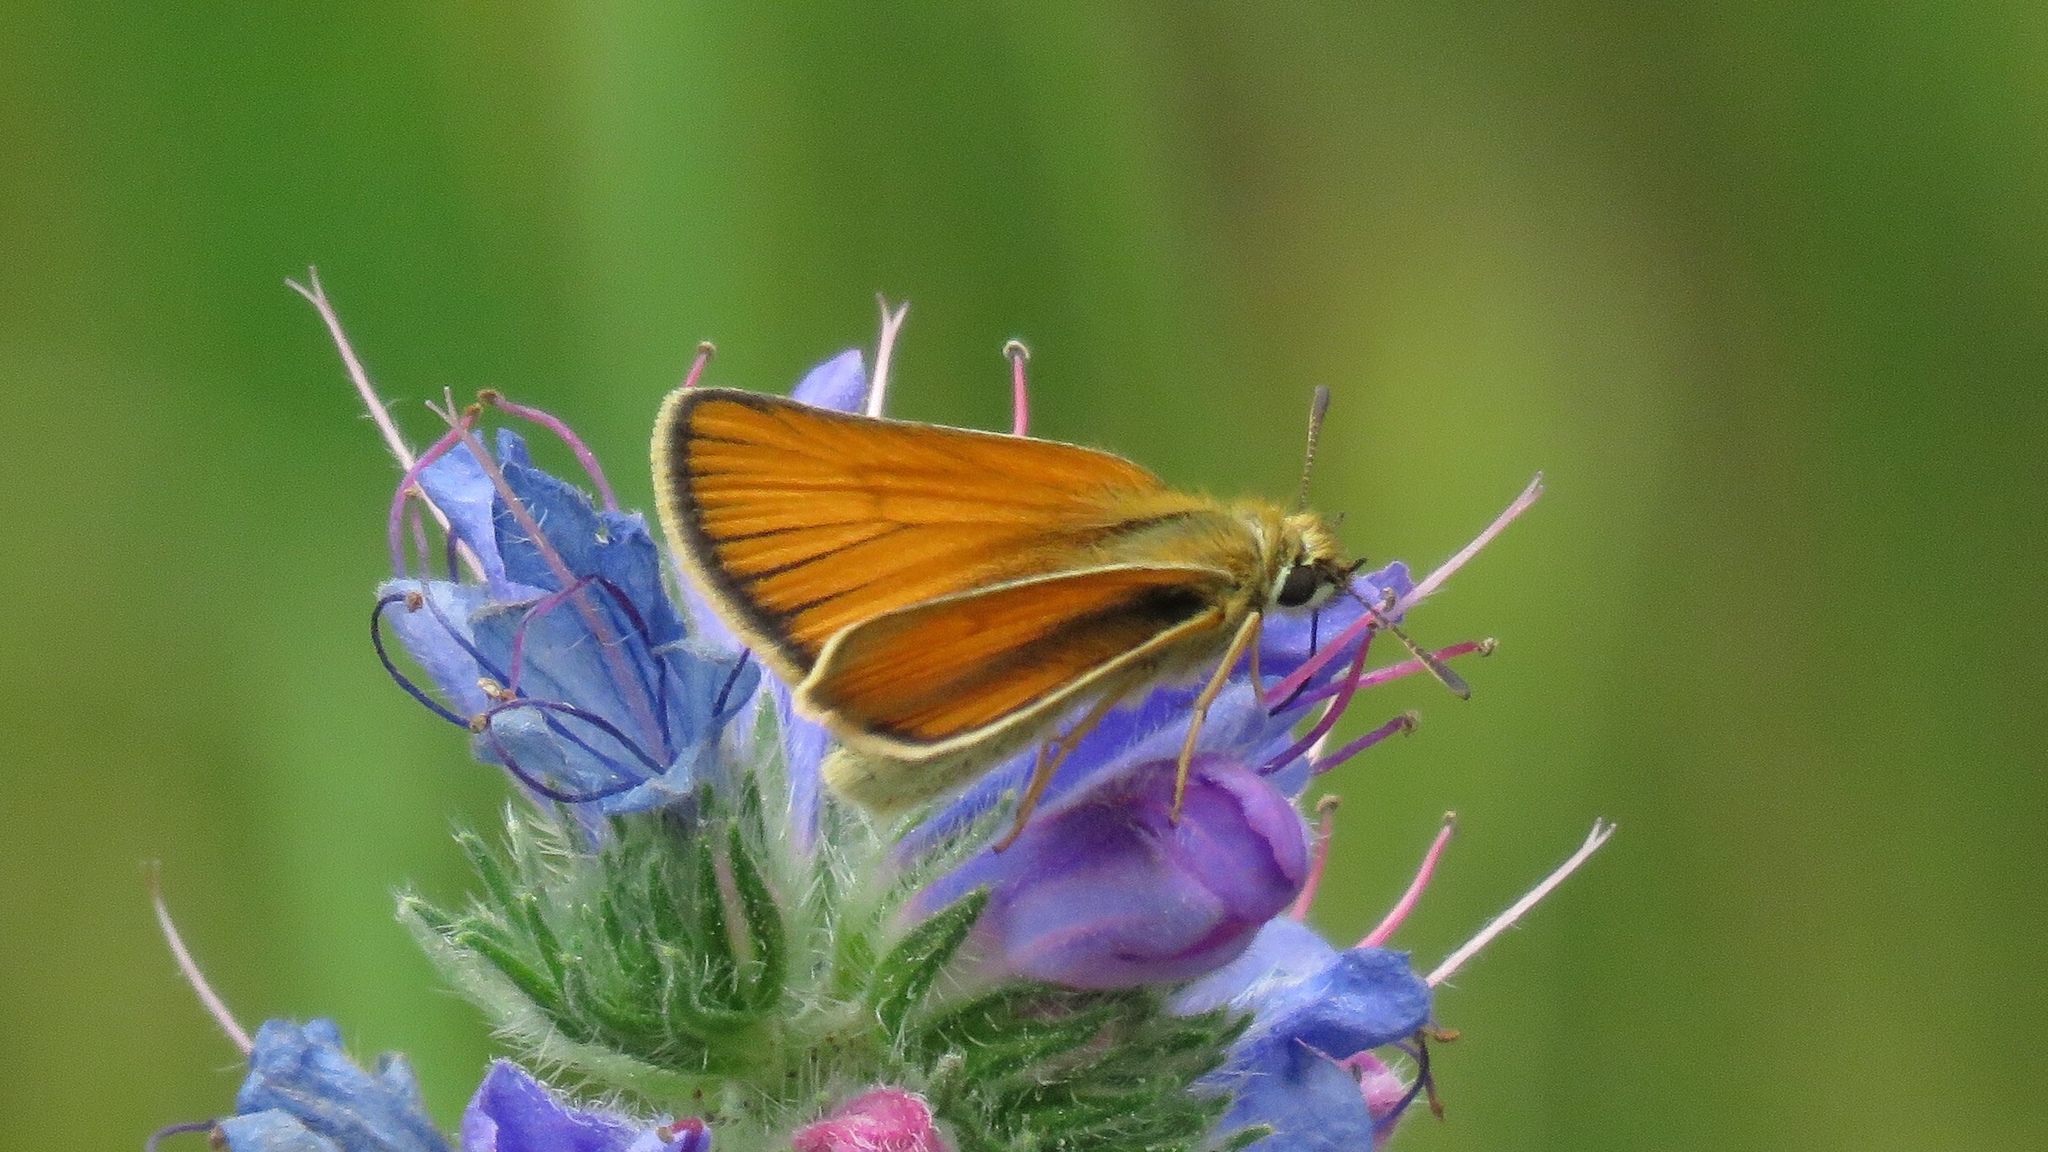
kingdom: Animalia
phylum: Arthropoda
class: Insecta
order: Lepidoptera
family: Hesperiidae
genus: Thymelicus
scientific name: Thymelicus lineola
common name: Essex skipper
